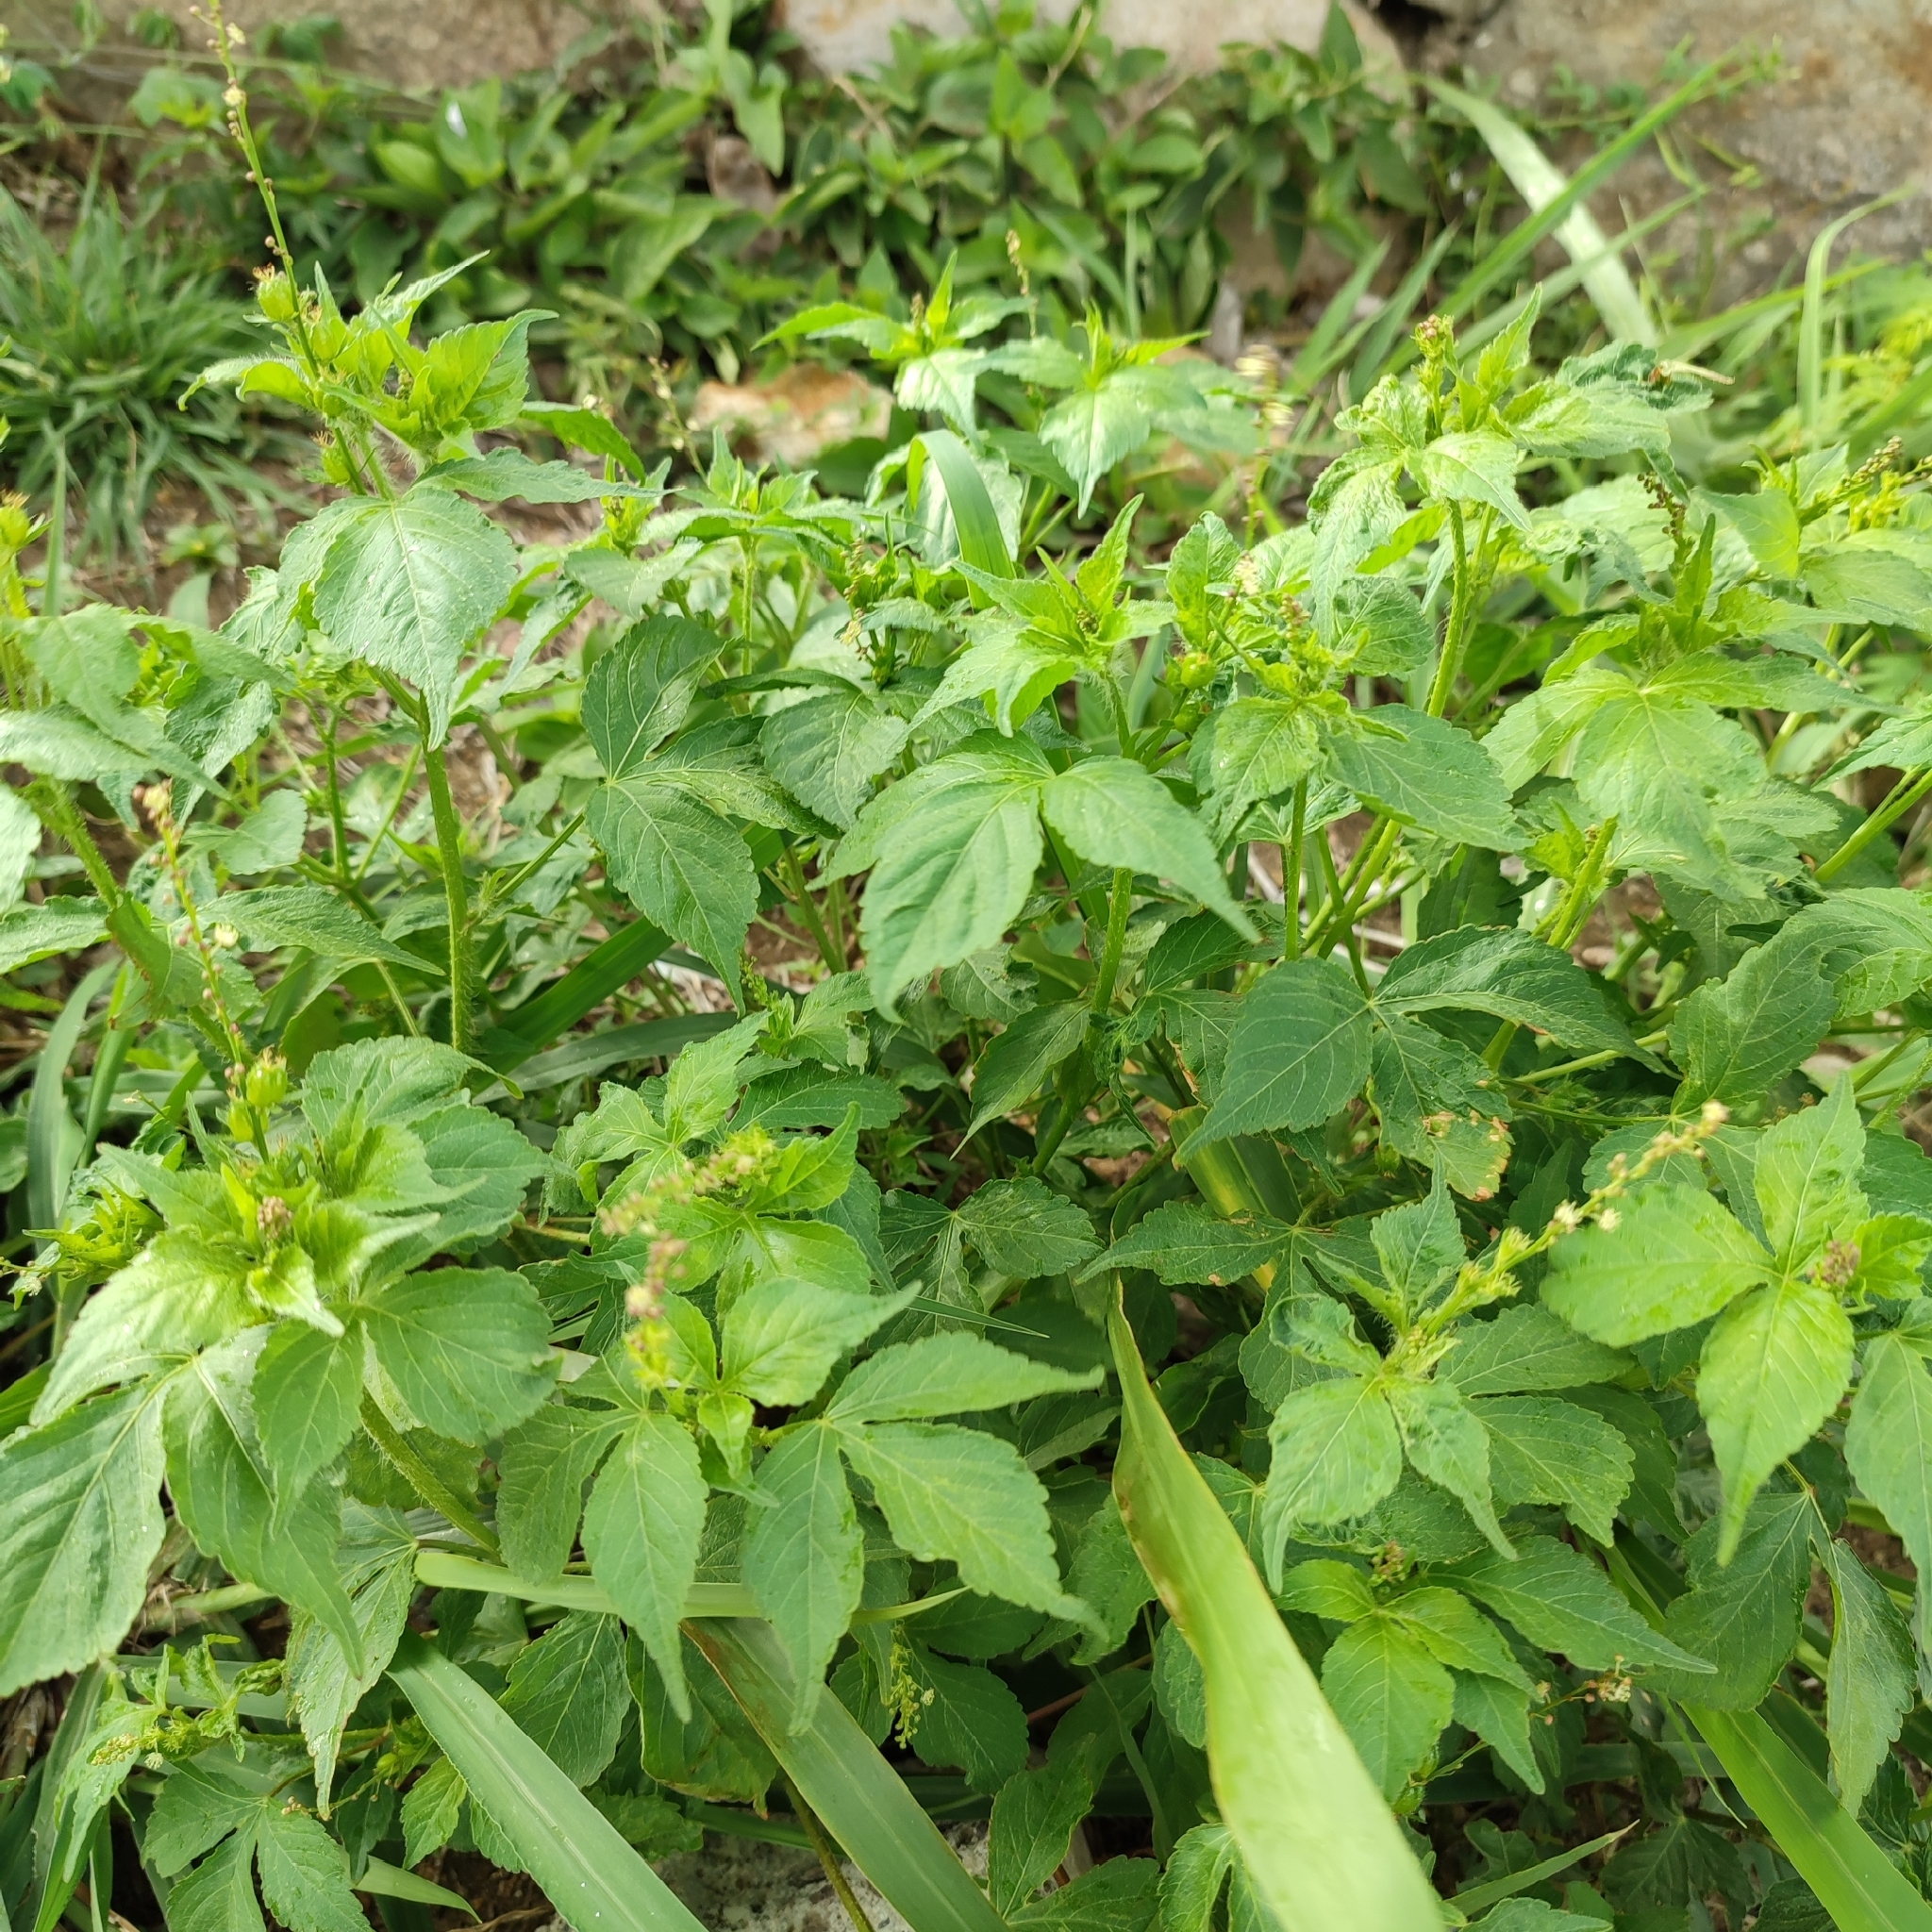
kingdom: Plantae
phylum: Tracheophyta
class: Magnoliopsida
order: Malpighiales
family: Euphorbiaceae
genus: Astraea
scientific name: Astraea lobata
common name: Lobed croton
